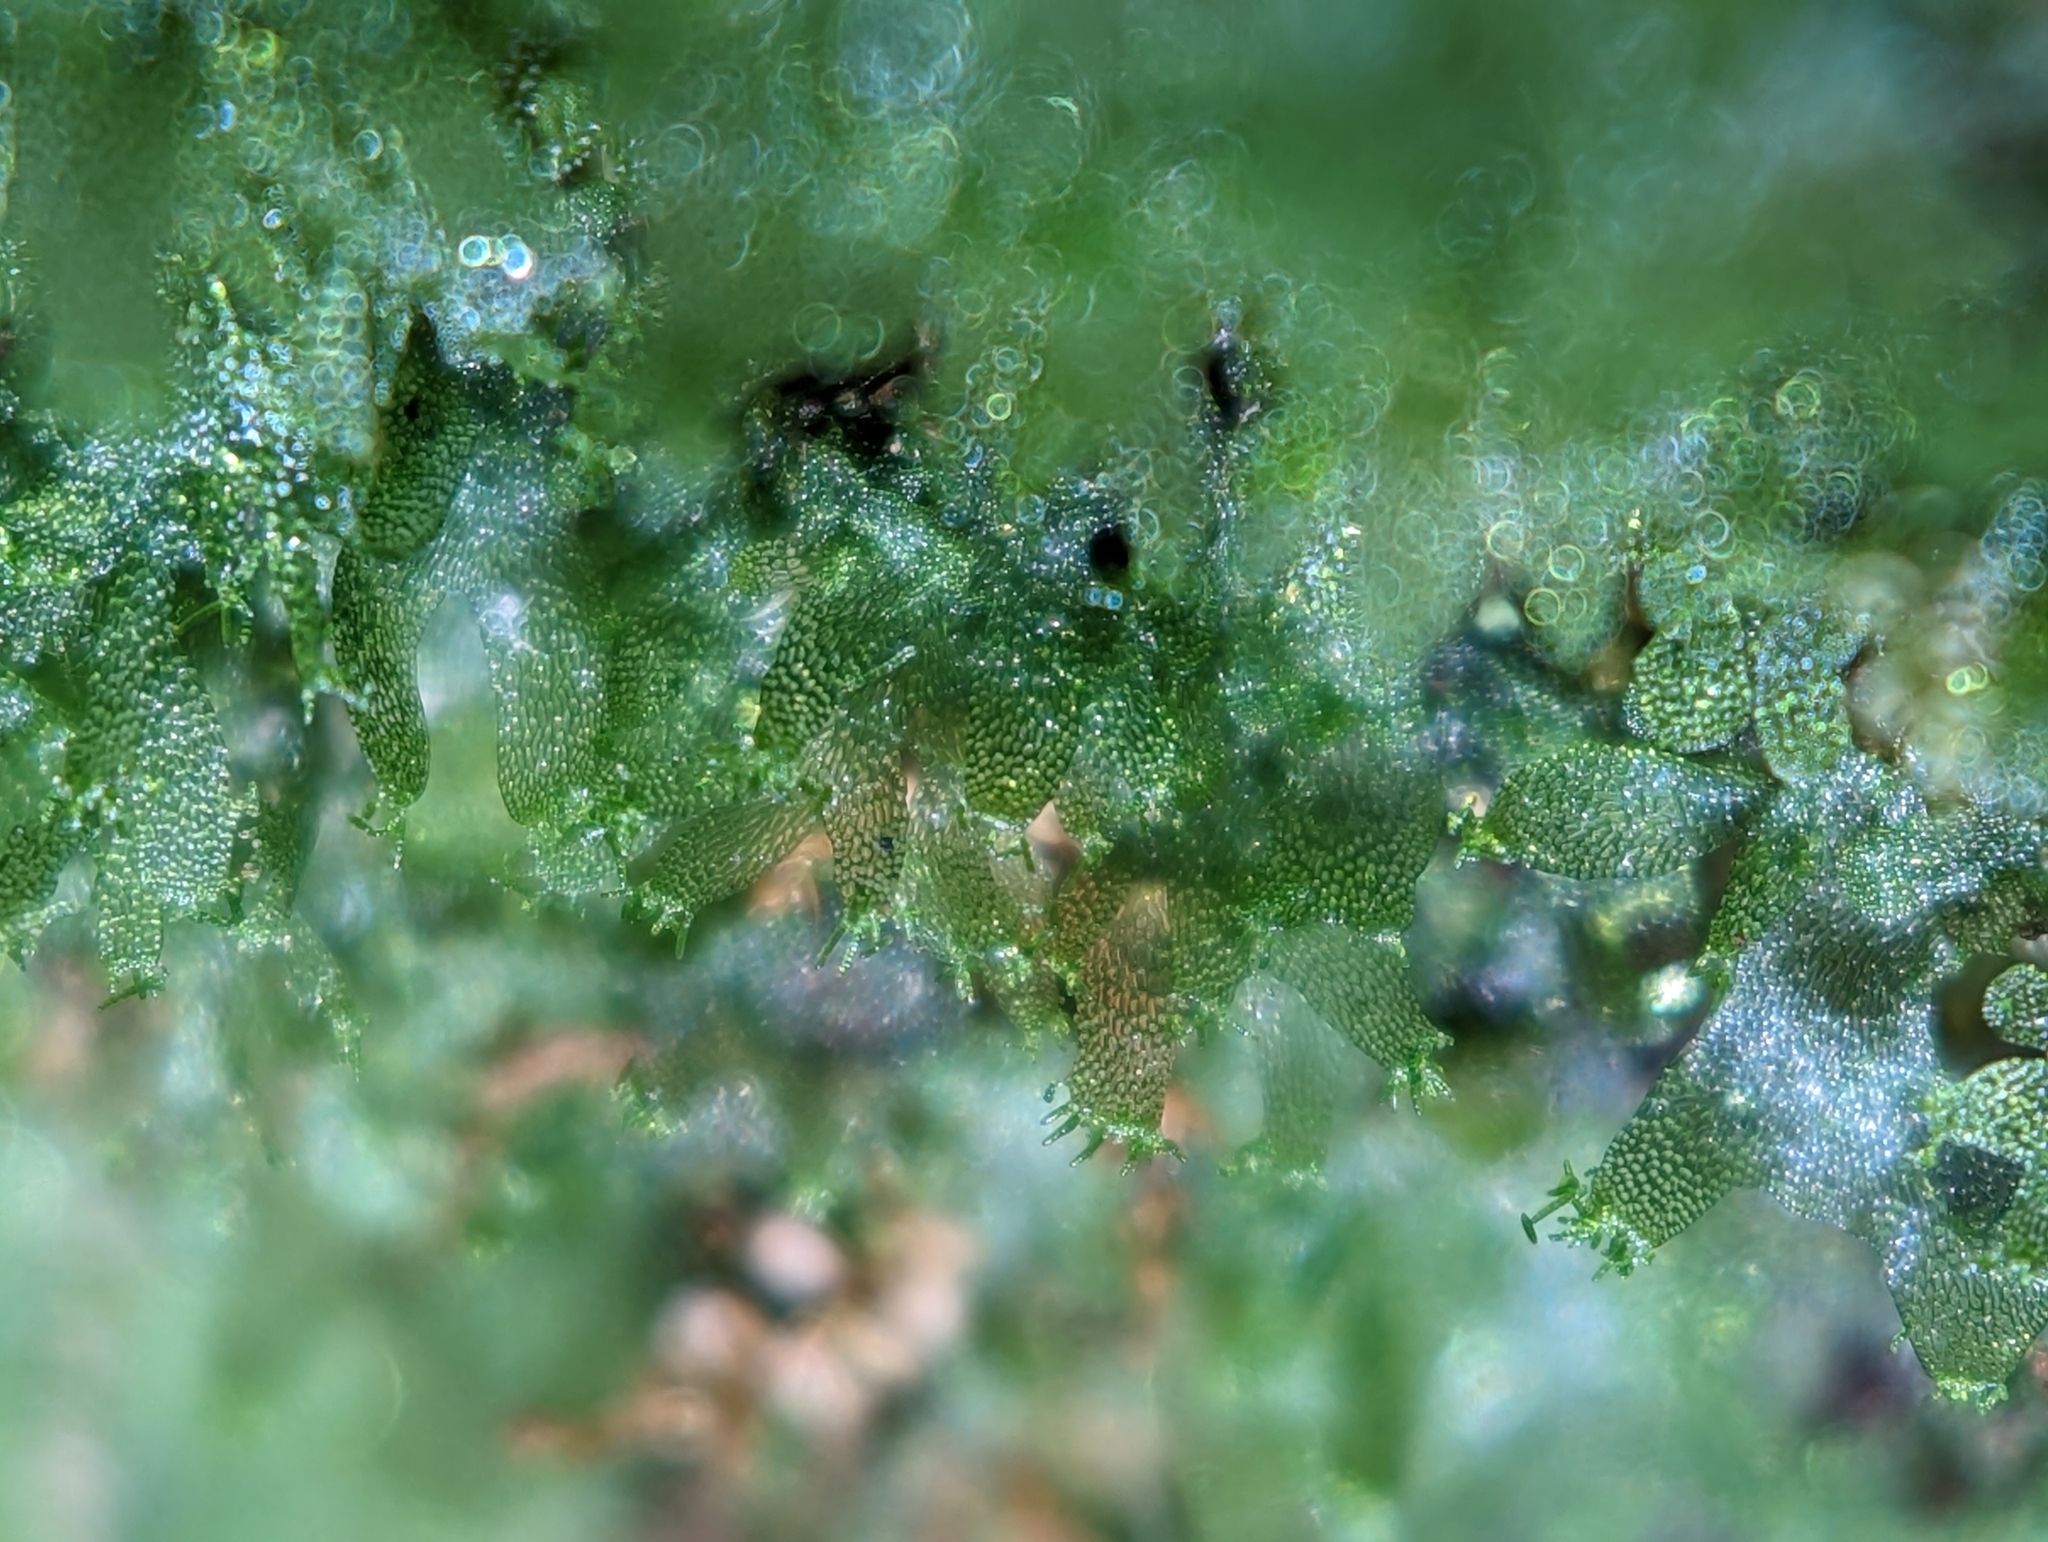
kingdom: Plantae
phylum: Tracheophyta
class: Polypodiopsida
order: Polypodiales
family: Pteridaceae
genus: Vittaria
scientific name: Vittaria appalachiana
